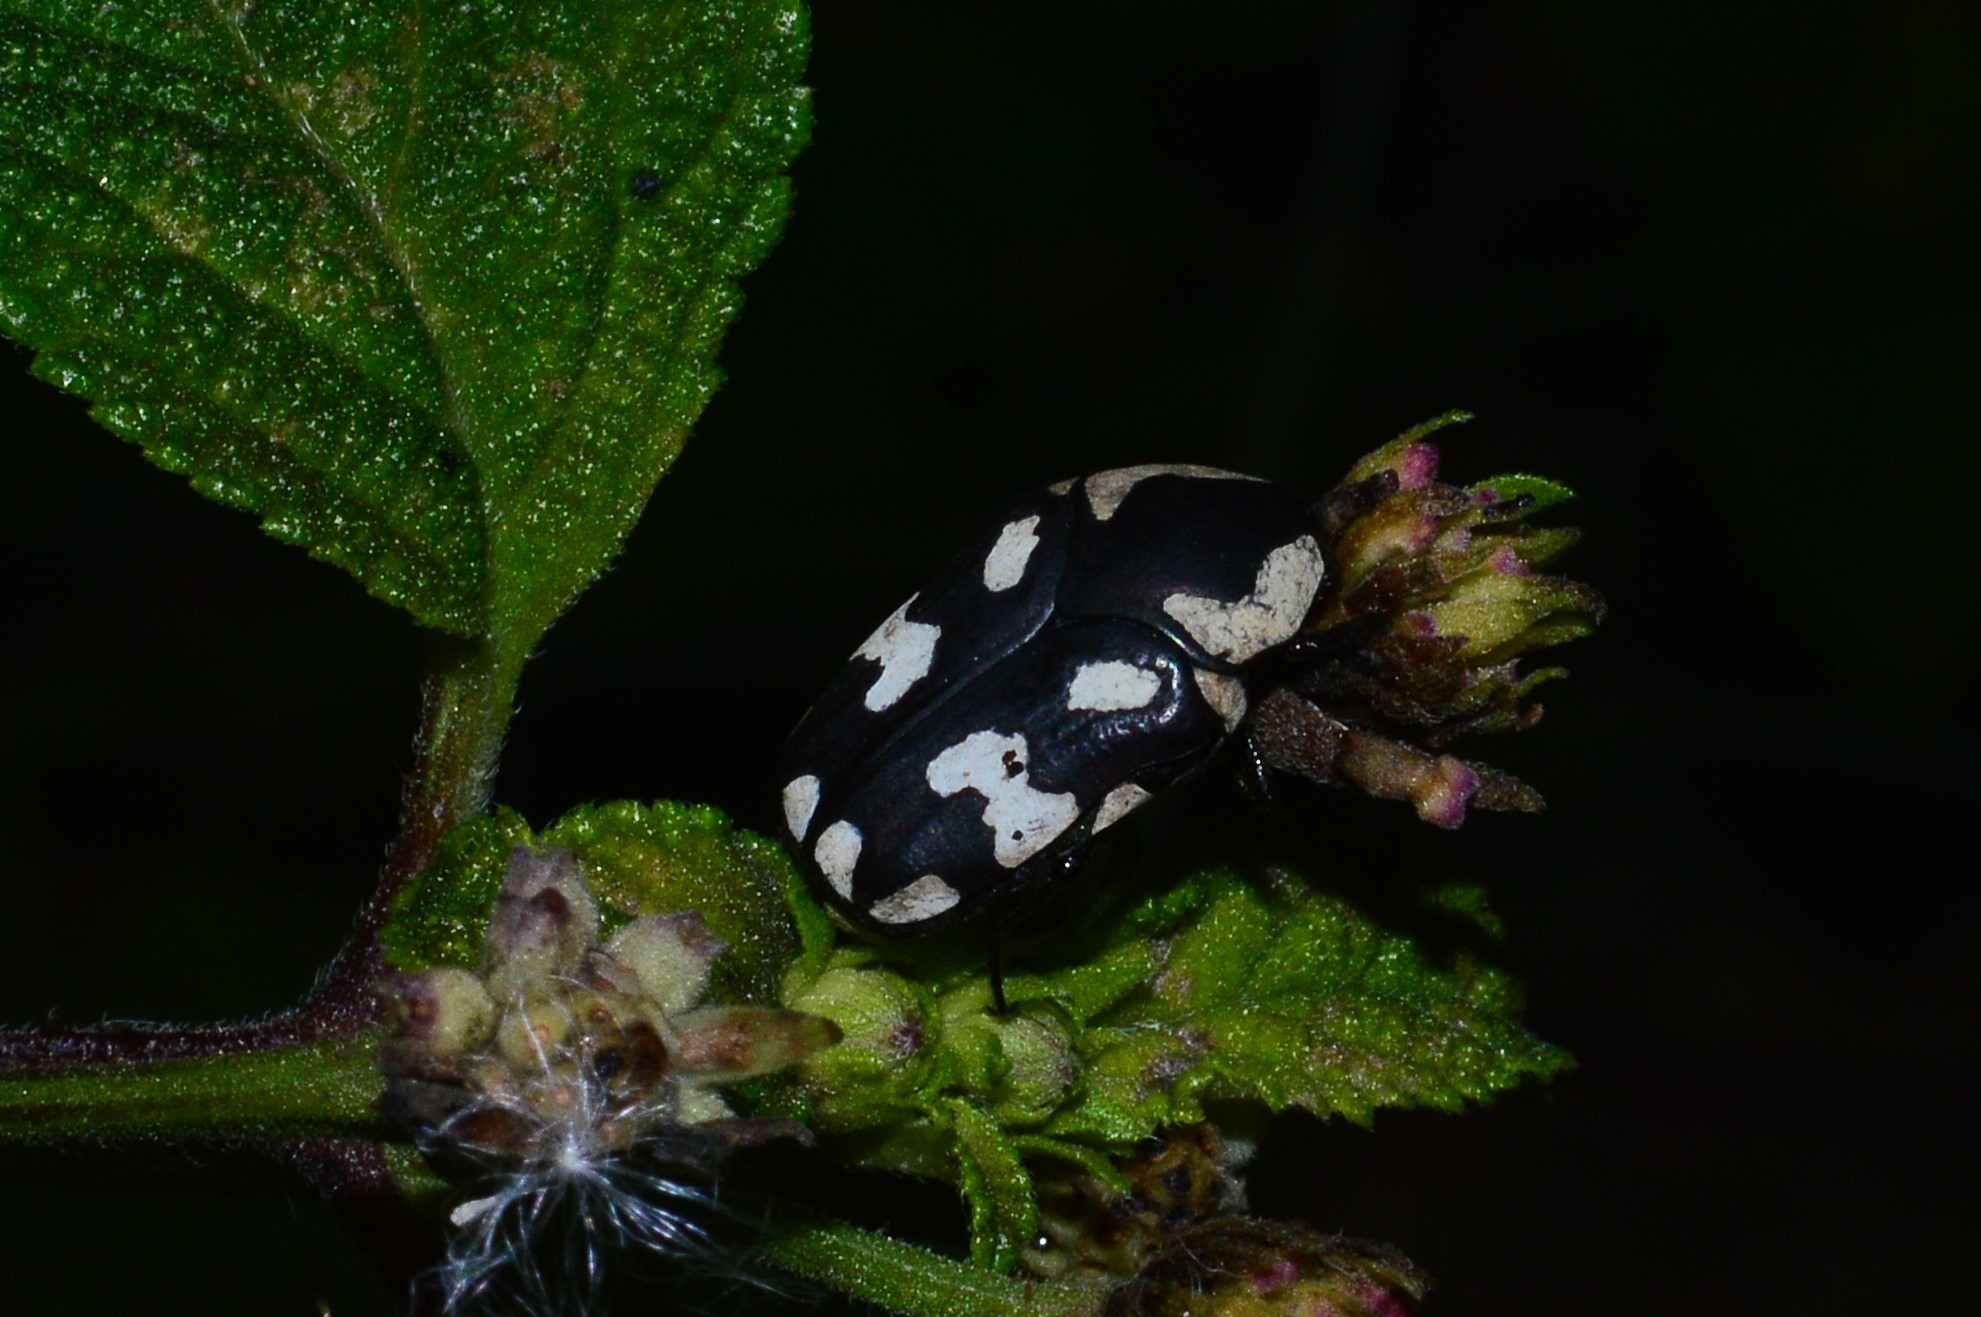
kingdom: Animalia
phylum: Arthropoda
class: Insecta
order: Coleoptera
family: Scarabaeidae
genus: Clinteria
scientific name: Clinteria klugi
